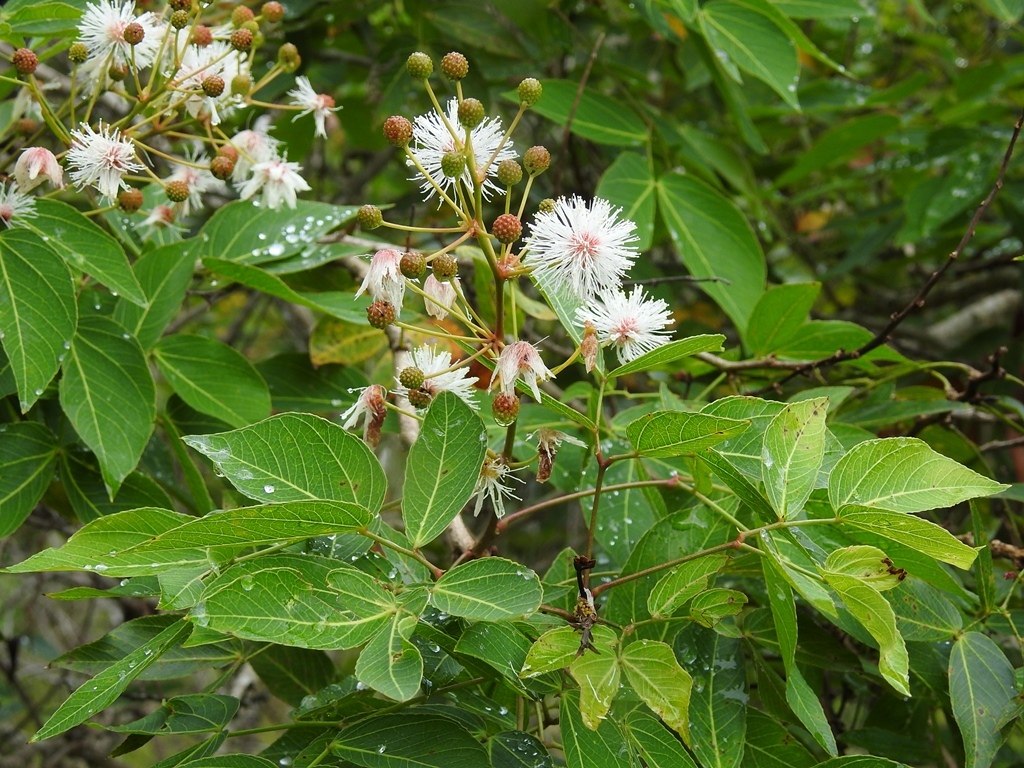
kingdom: Plantae
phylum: Tracheophyta
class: Magnoliopsida
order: Fabales
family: Fabaceae
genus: Mimosa
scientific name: Mimosa lactiflua
